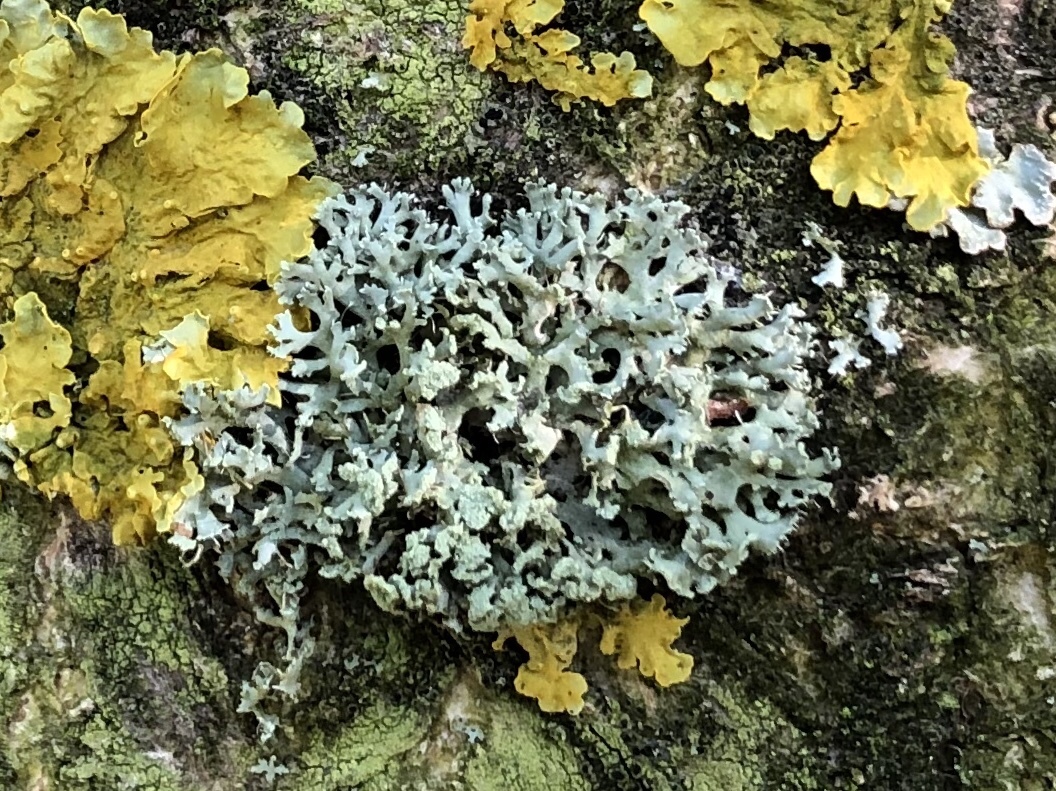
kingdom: Fungi
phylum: Ascomycota
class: Lecanoromycetes
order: Caliciales
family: Physciaceae
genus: Physcia
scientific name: Physcia tenella
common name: Fringed rosette lichen
